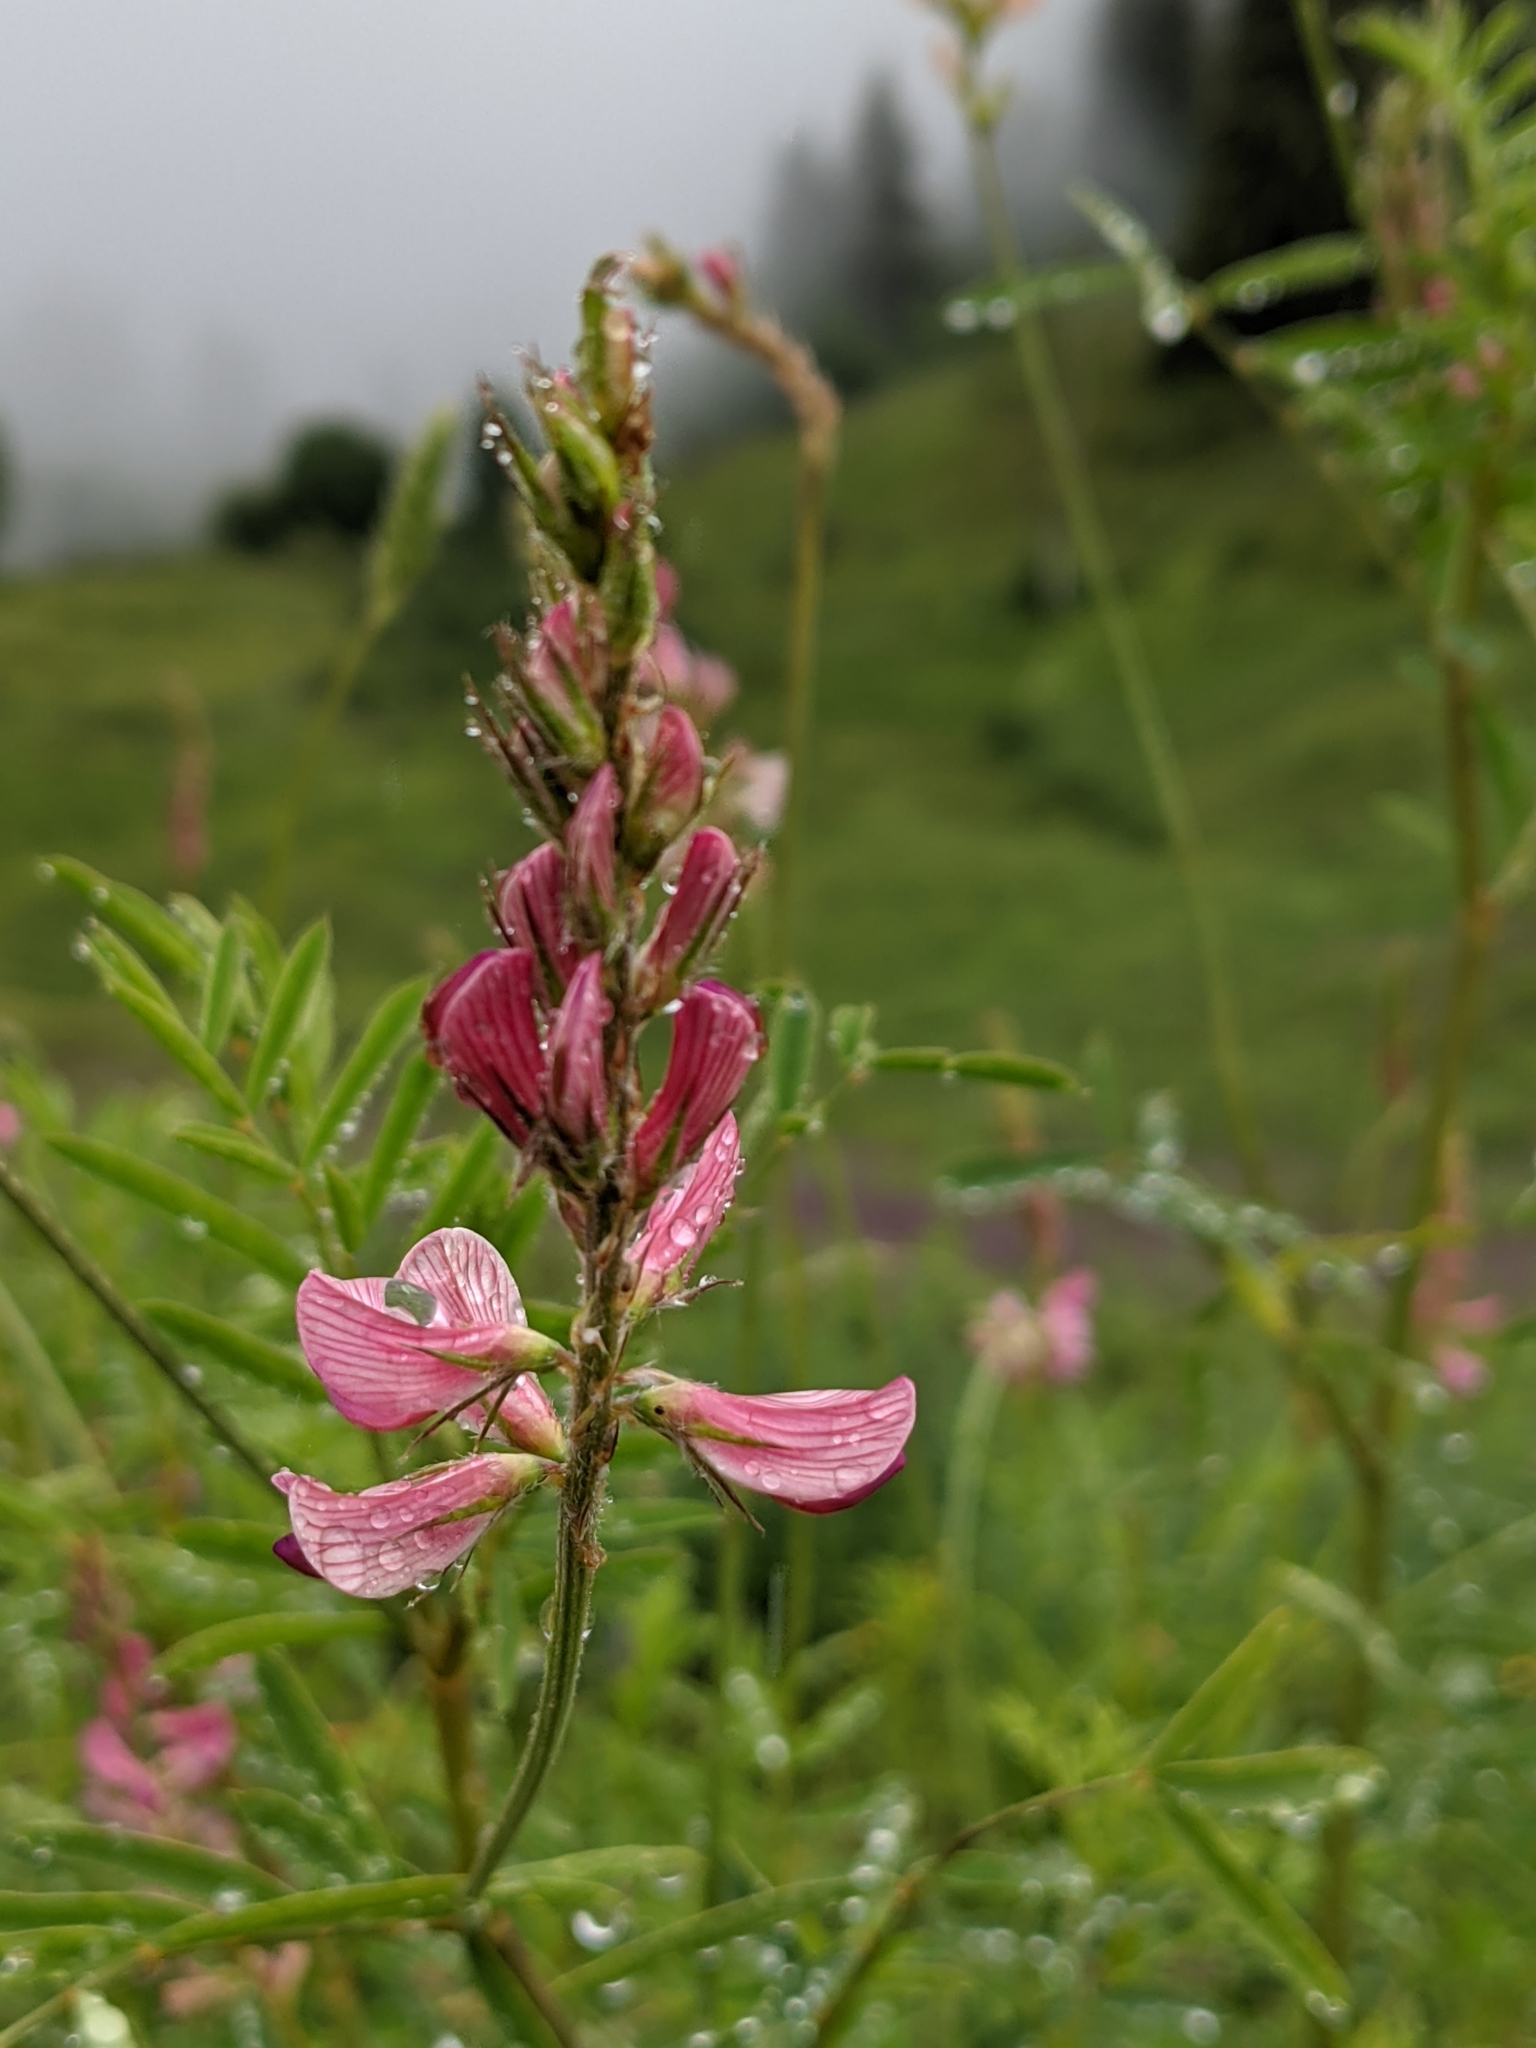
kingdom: Plantae
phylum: Tracheophyta
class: Magnoliopsida
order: Fabales
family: Fabaceae
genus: Onobrychis
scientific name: Onobrychis viciifolia
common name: Sainfoin
